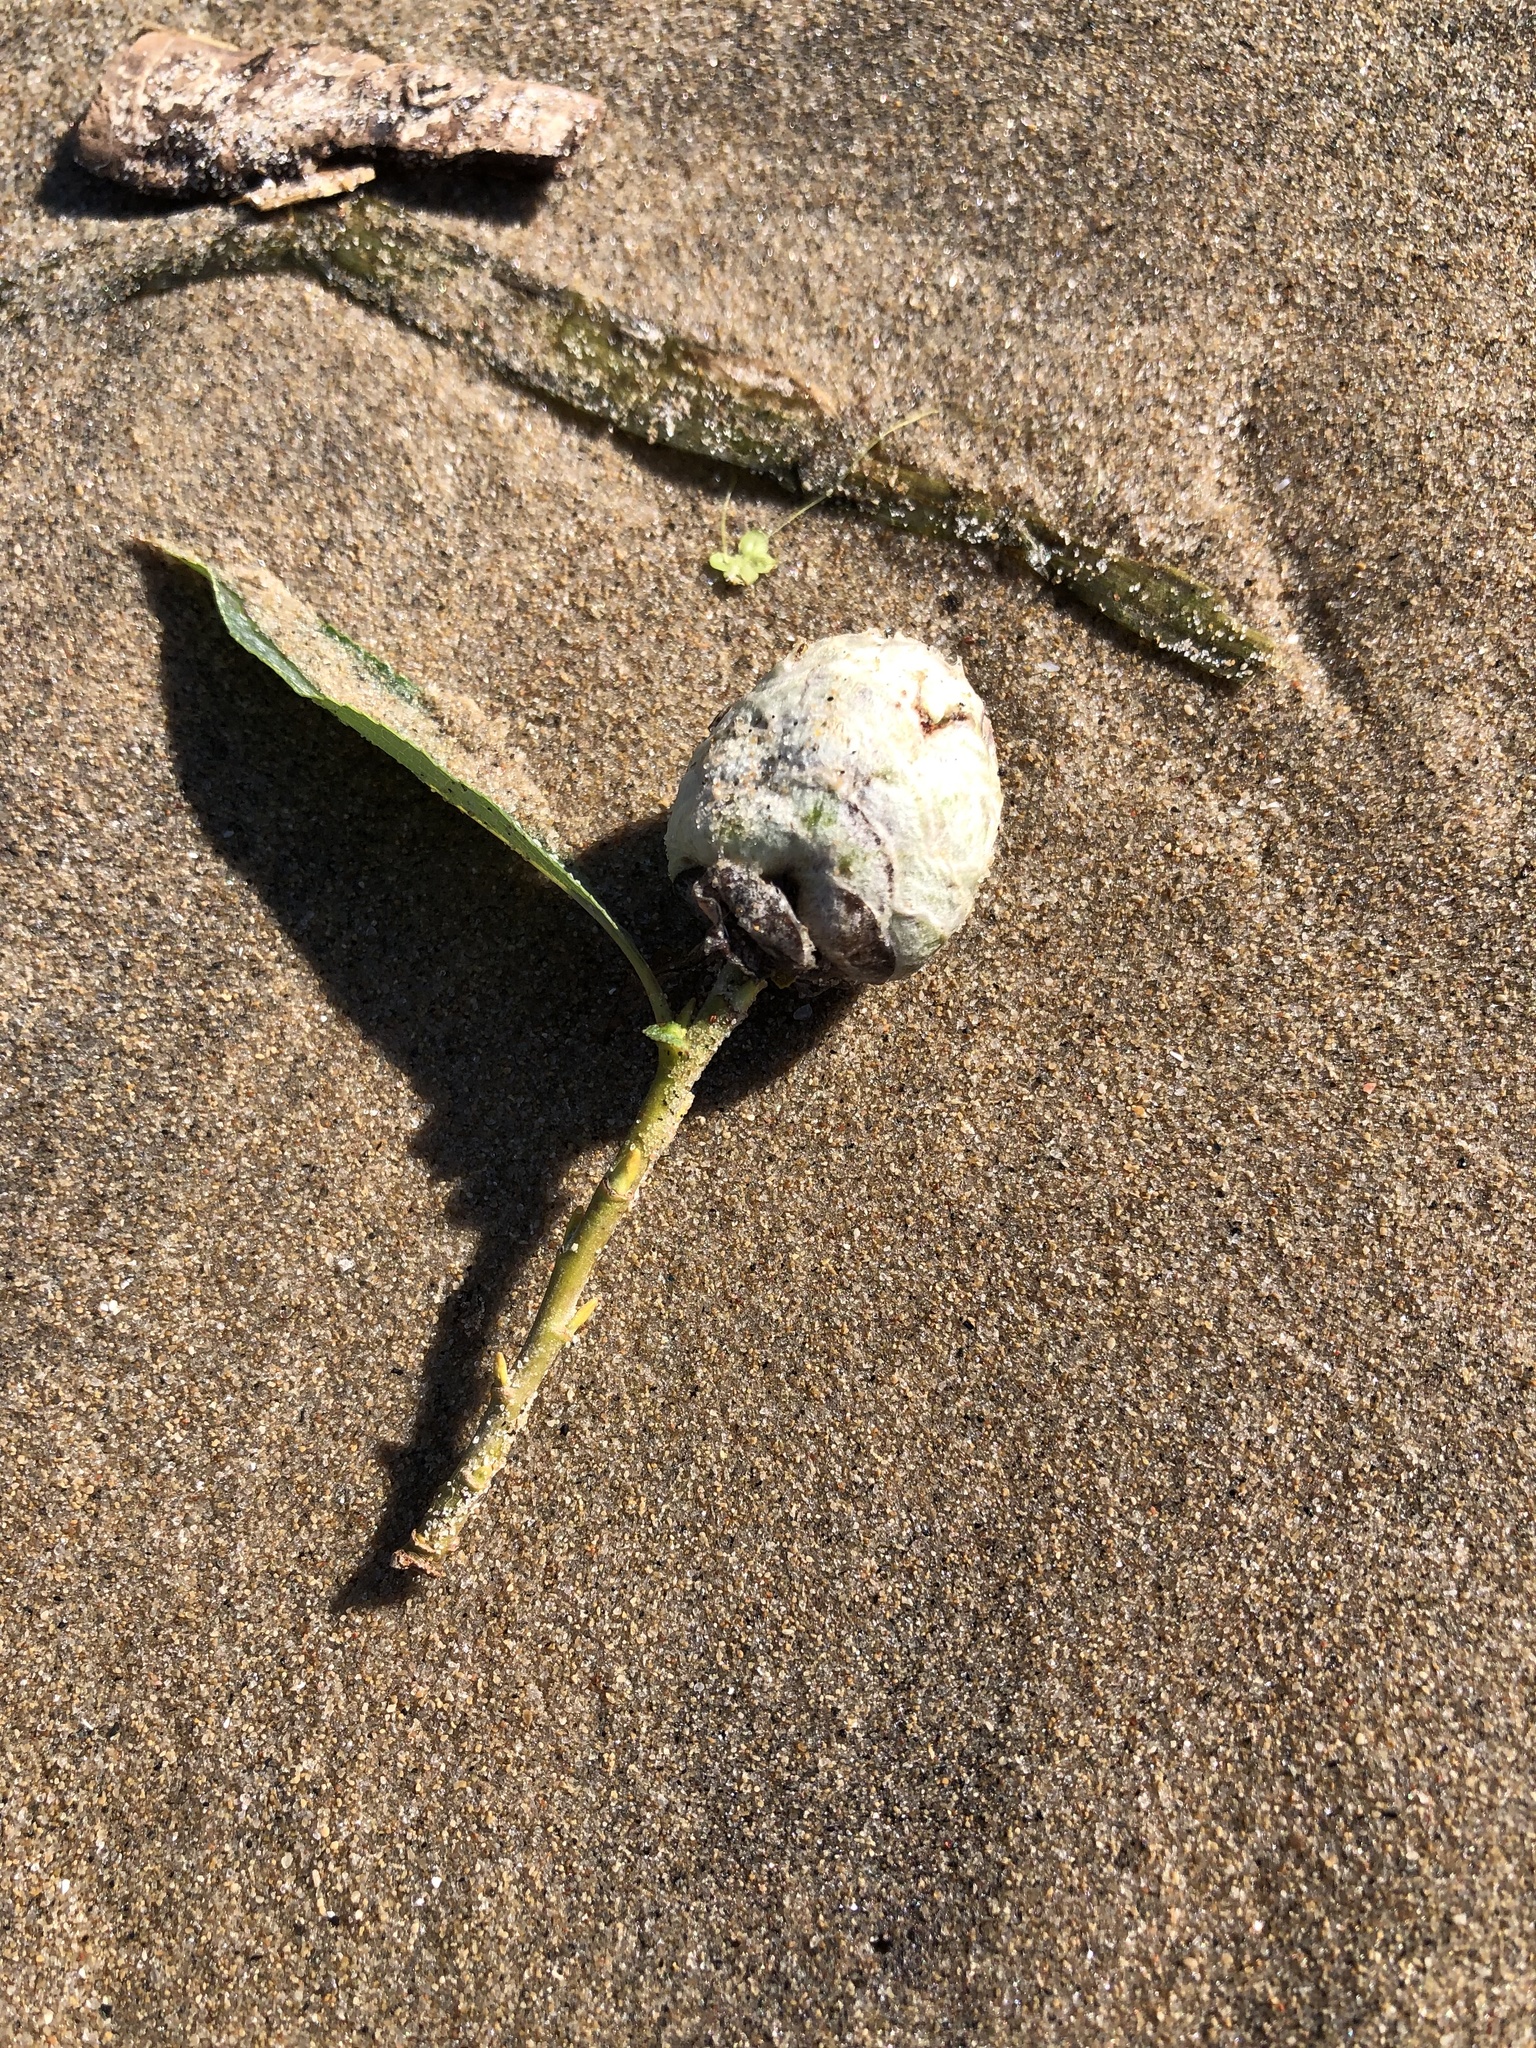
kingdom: Animalia
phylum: Arthropoda
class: Insecta
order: Diptera
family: Cecidomyiidae
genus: Rabdophaga
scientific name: Rabdophaga strobiloides
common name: Willow pinecone gall midge
